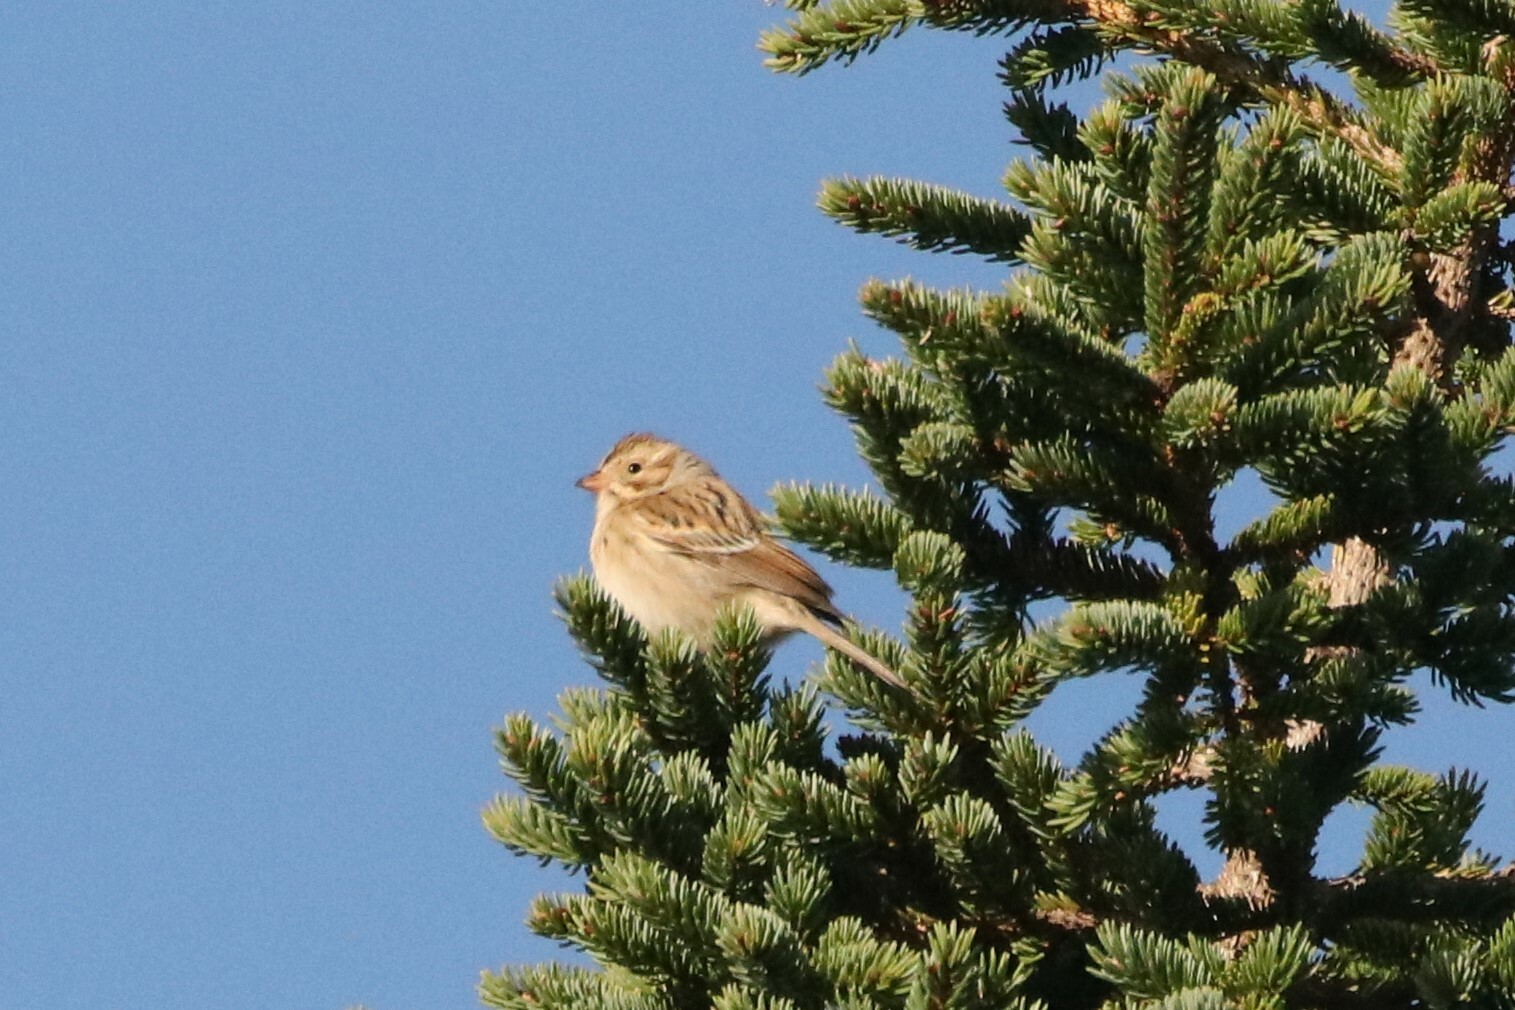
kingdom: Animalia
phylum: Chordata
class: Aves
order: Passeriformes
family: Passerellidae
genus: Spizella
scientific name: Spizella pallida
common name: Clay-colored sparrow
